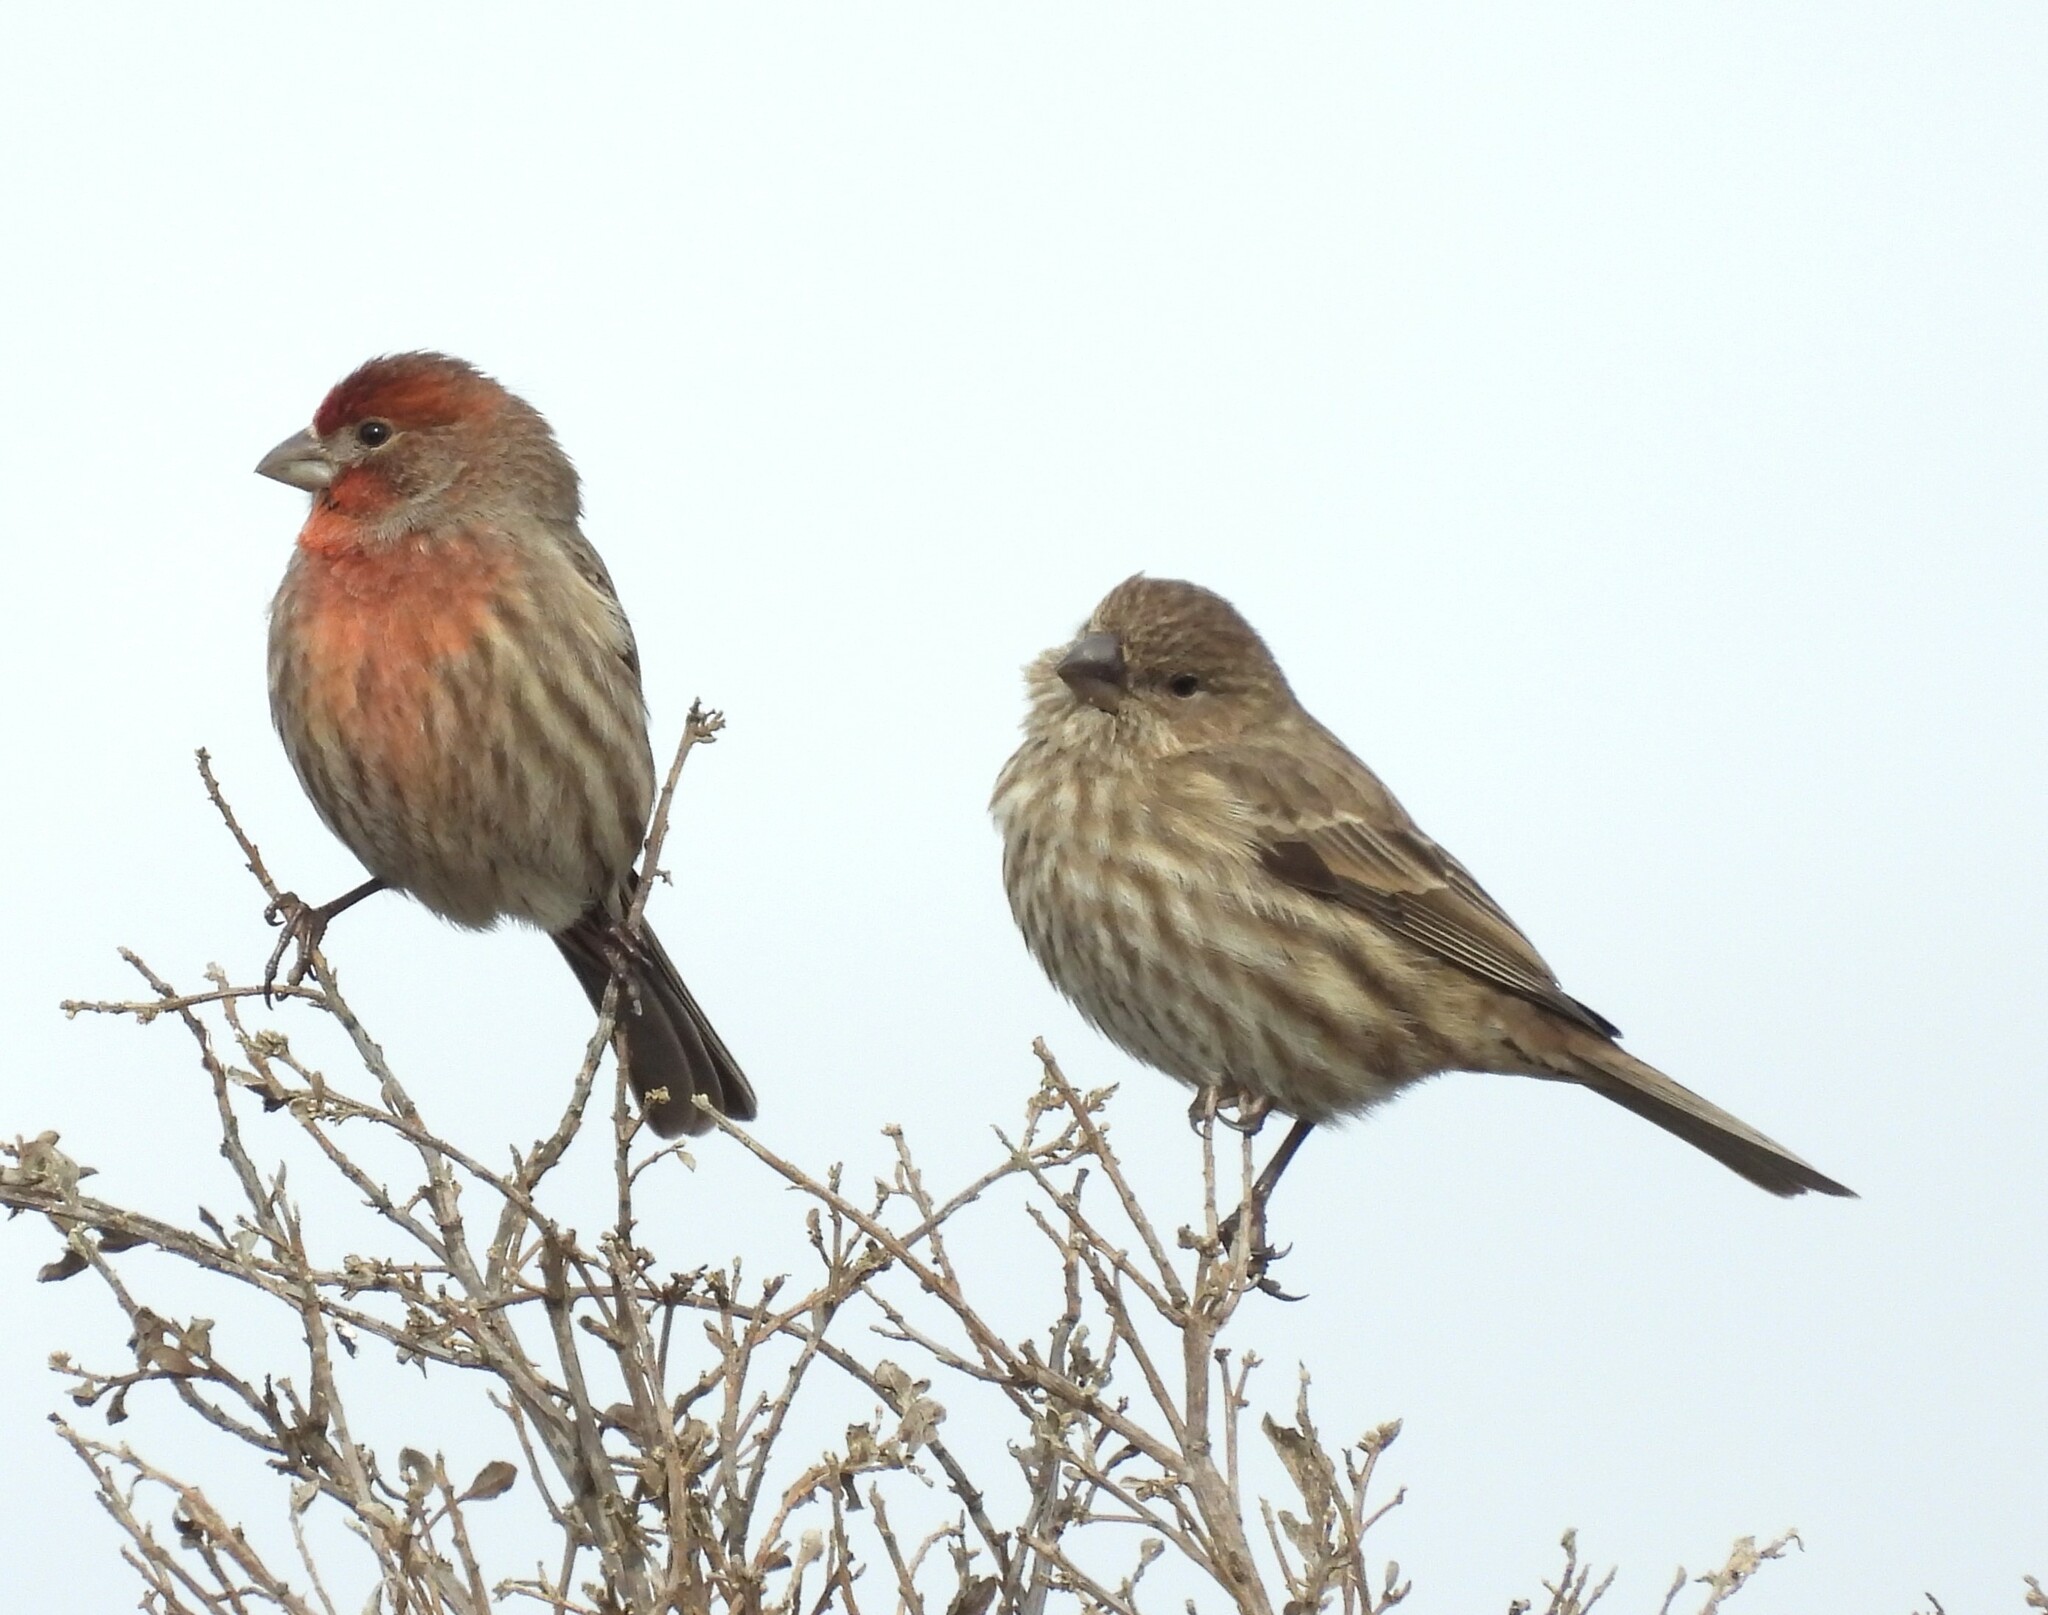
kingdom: Animalia
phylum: Chordata
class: Aves
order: Passeriformes
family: Fringillidae
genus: Haemorhous
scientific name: Haemorhous mexicanus
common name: House finch
